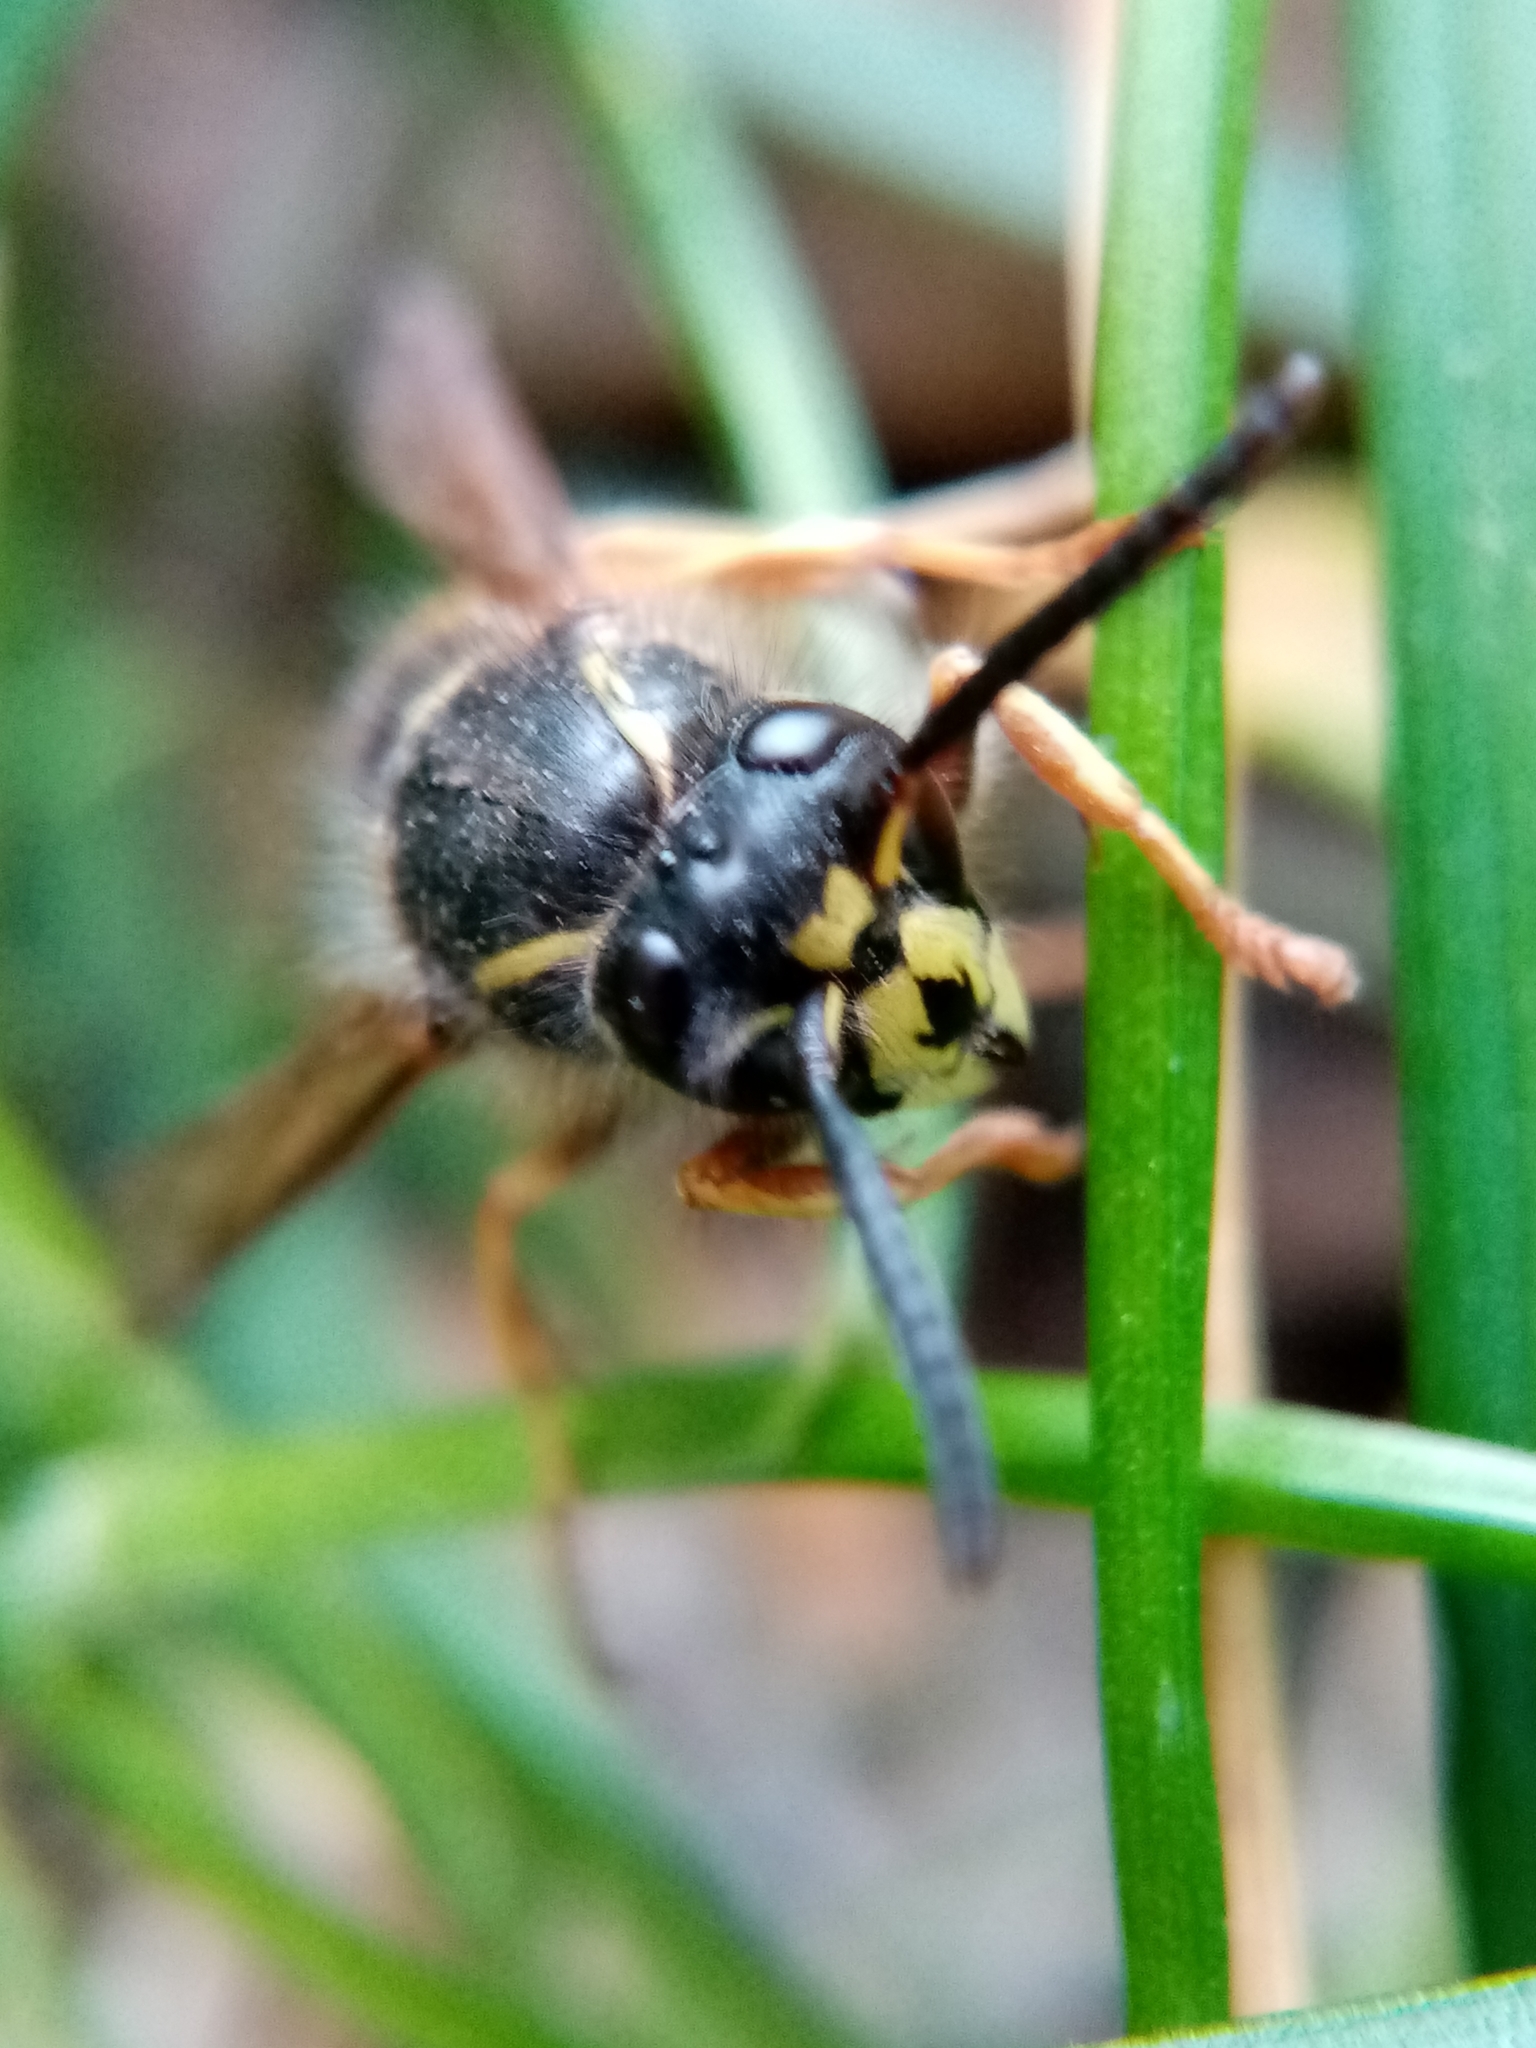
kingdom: Animalia
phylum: Arthropoda
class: Insecta
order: Hymenoptera
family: Vespidae
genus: Vespula
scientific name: Vespula vulgaris
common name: Common wasp
